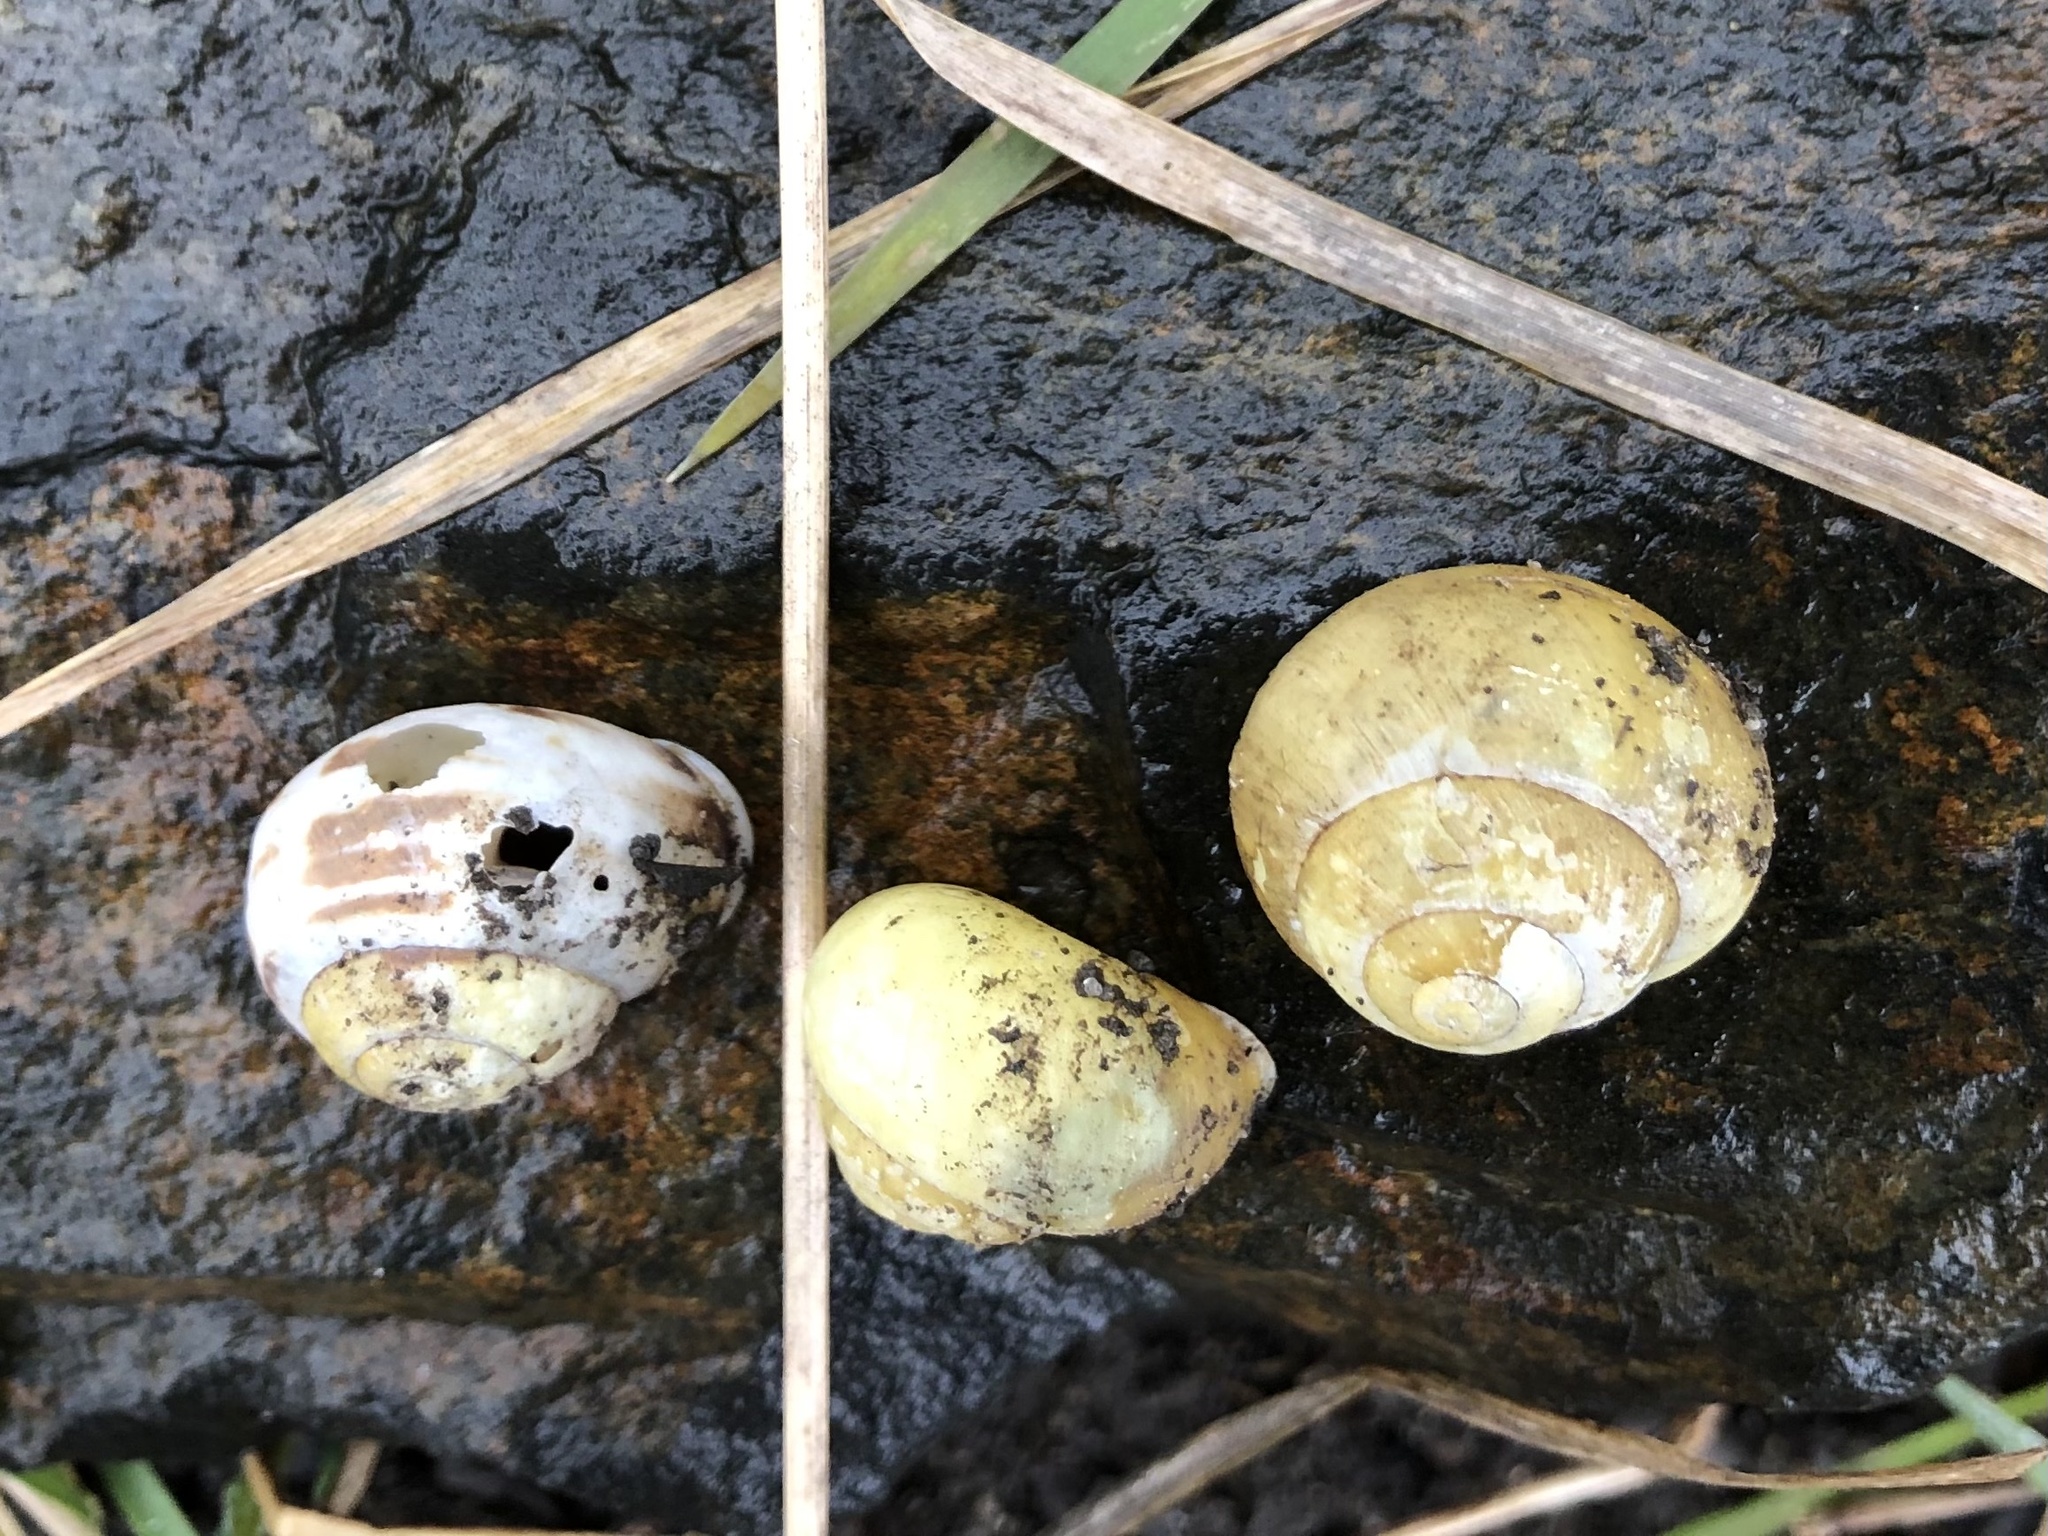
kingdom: Animalia
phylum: Mollusca
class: Gastropoda
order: Stylommatophora
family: Helicidae
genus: Cepaea
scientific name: Cepaea hortensis
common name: White-lip gardensnail
